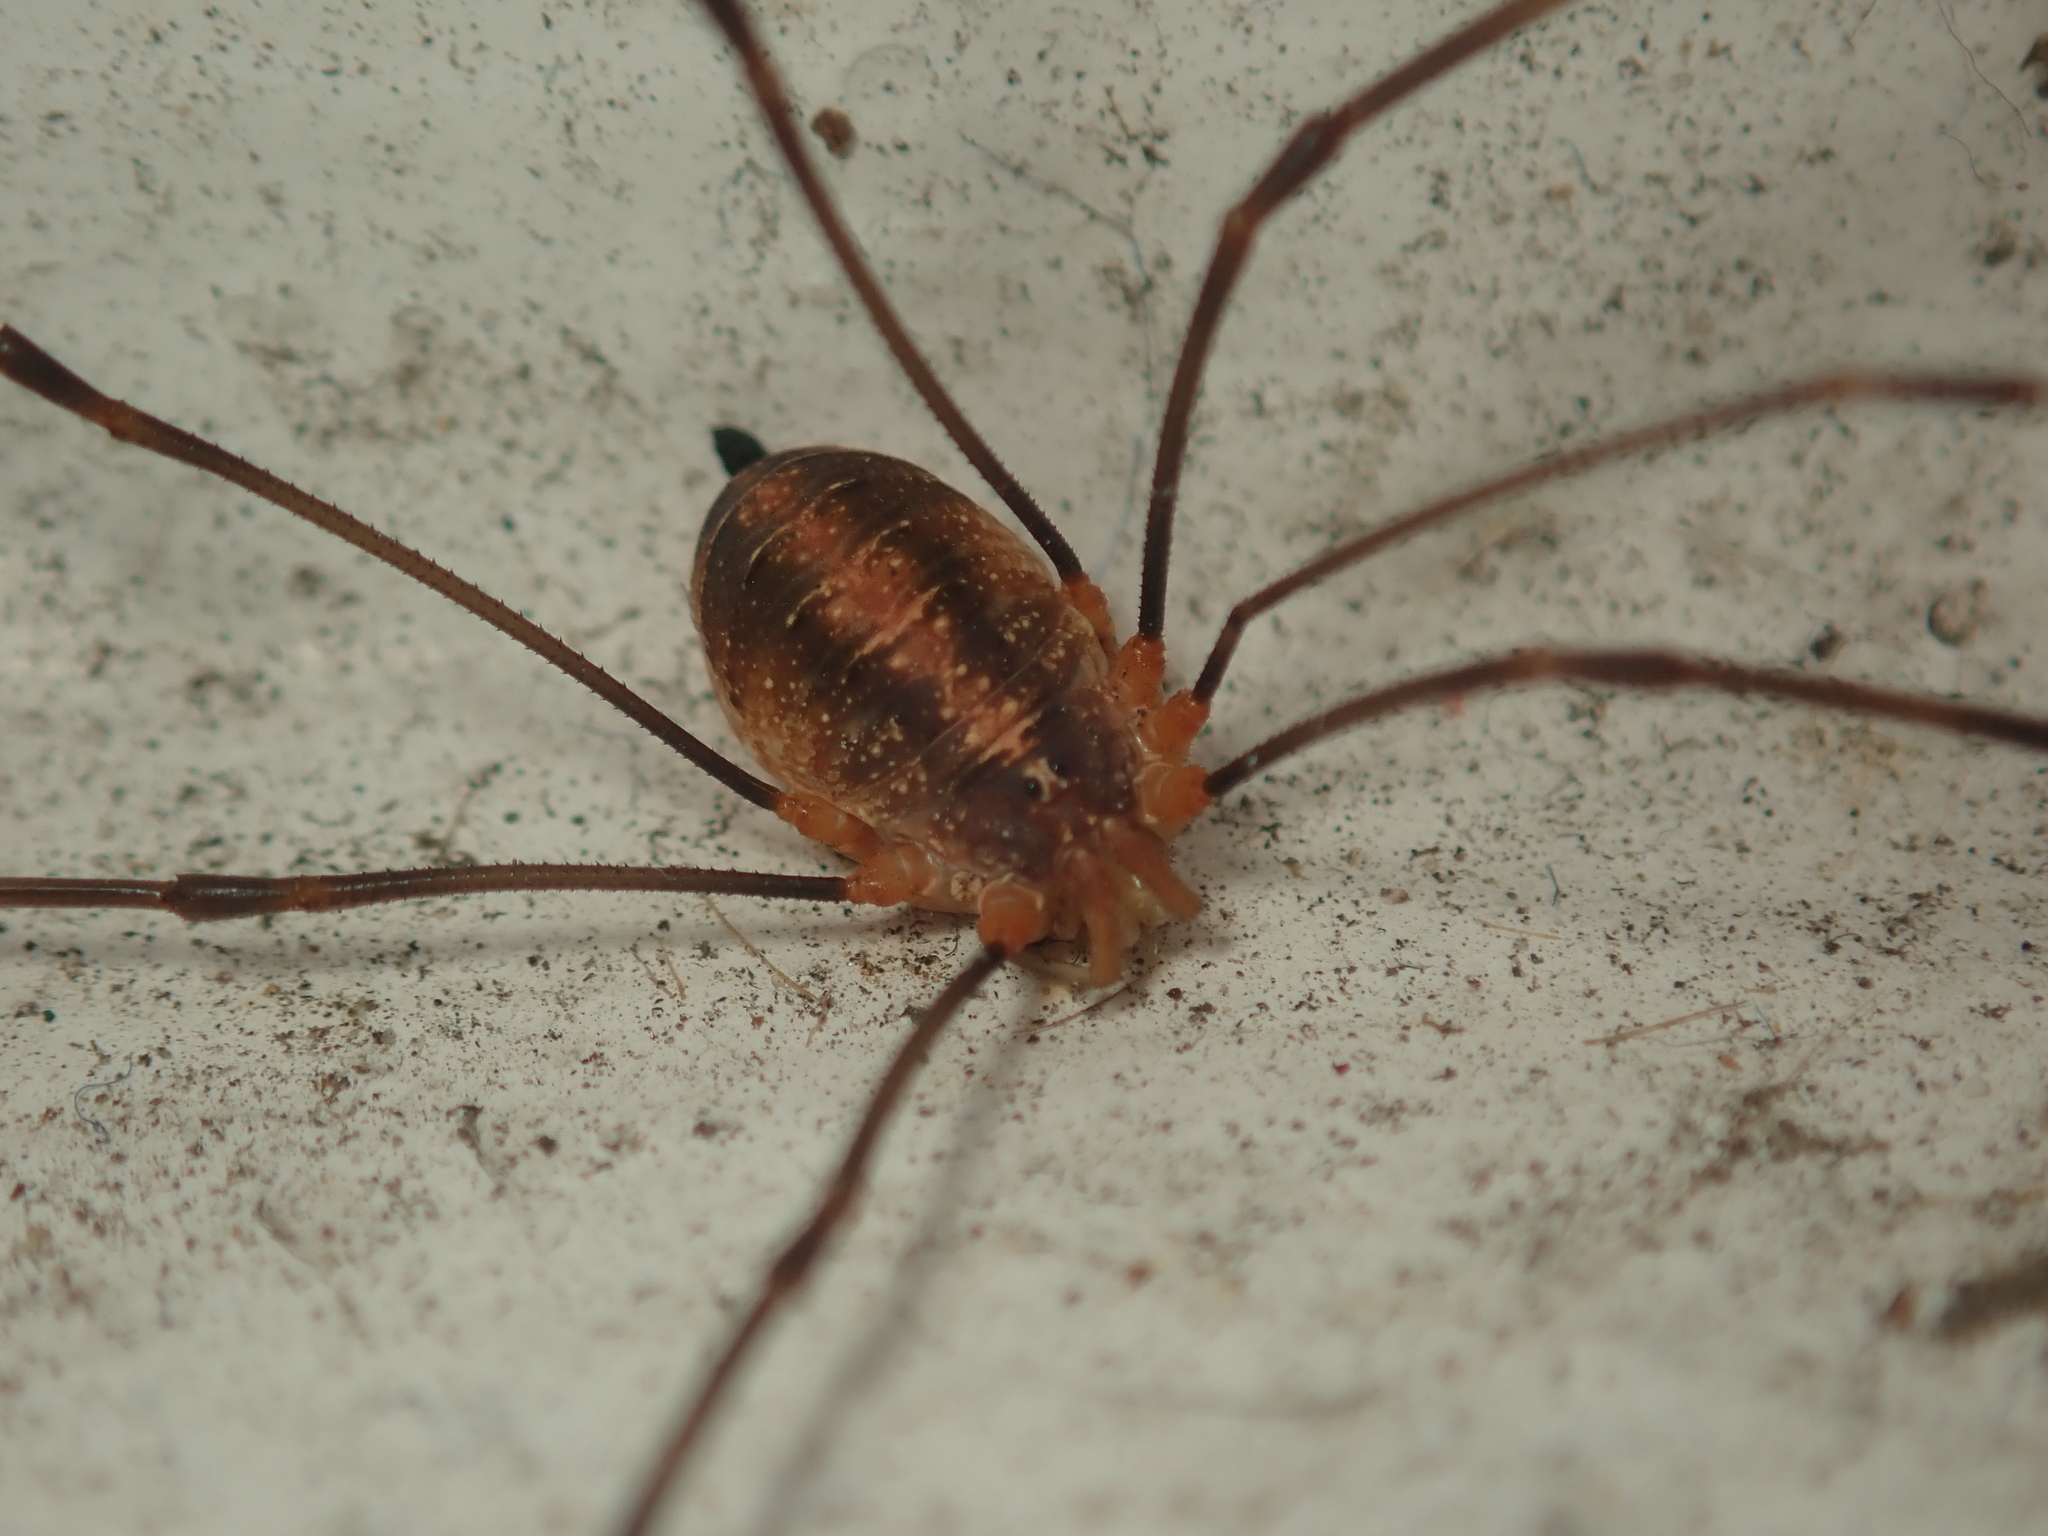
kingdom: Animalia
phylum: Arthropoda
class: Arachnida
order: Opiliones
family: Phalangiidae
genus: Opilio
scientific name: Opilio canestrinii
